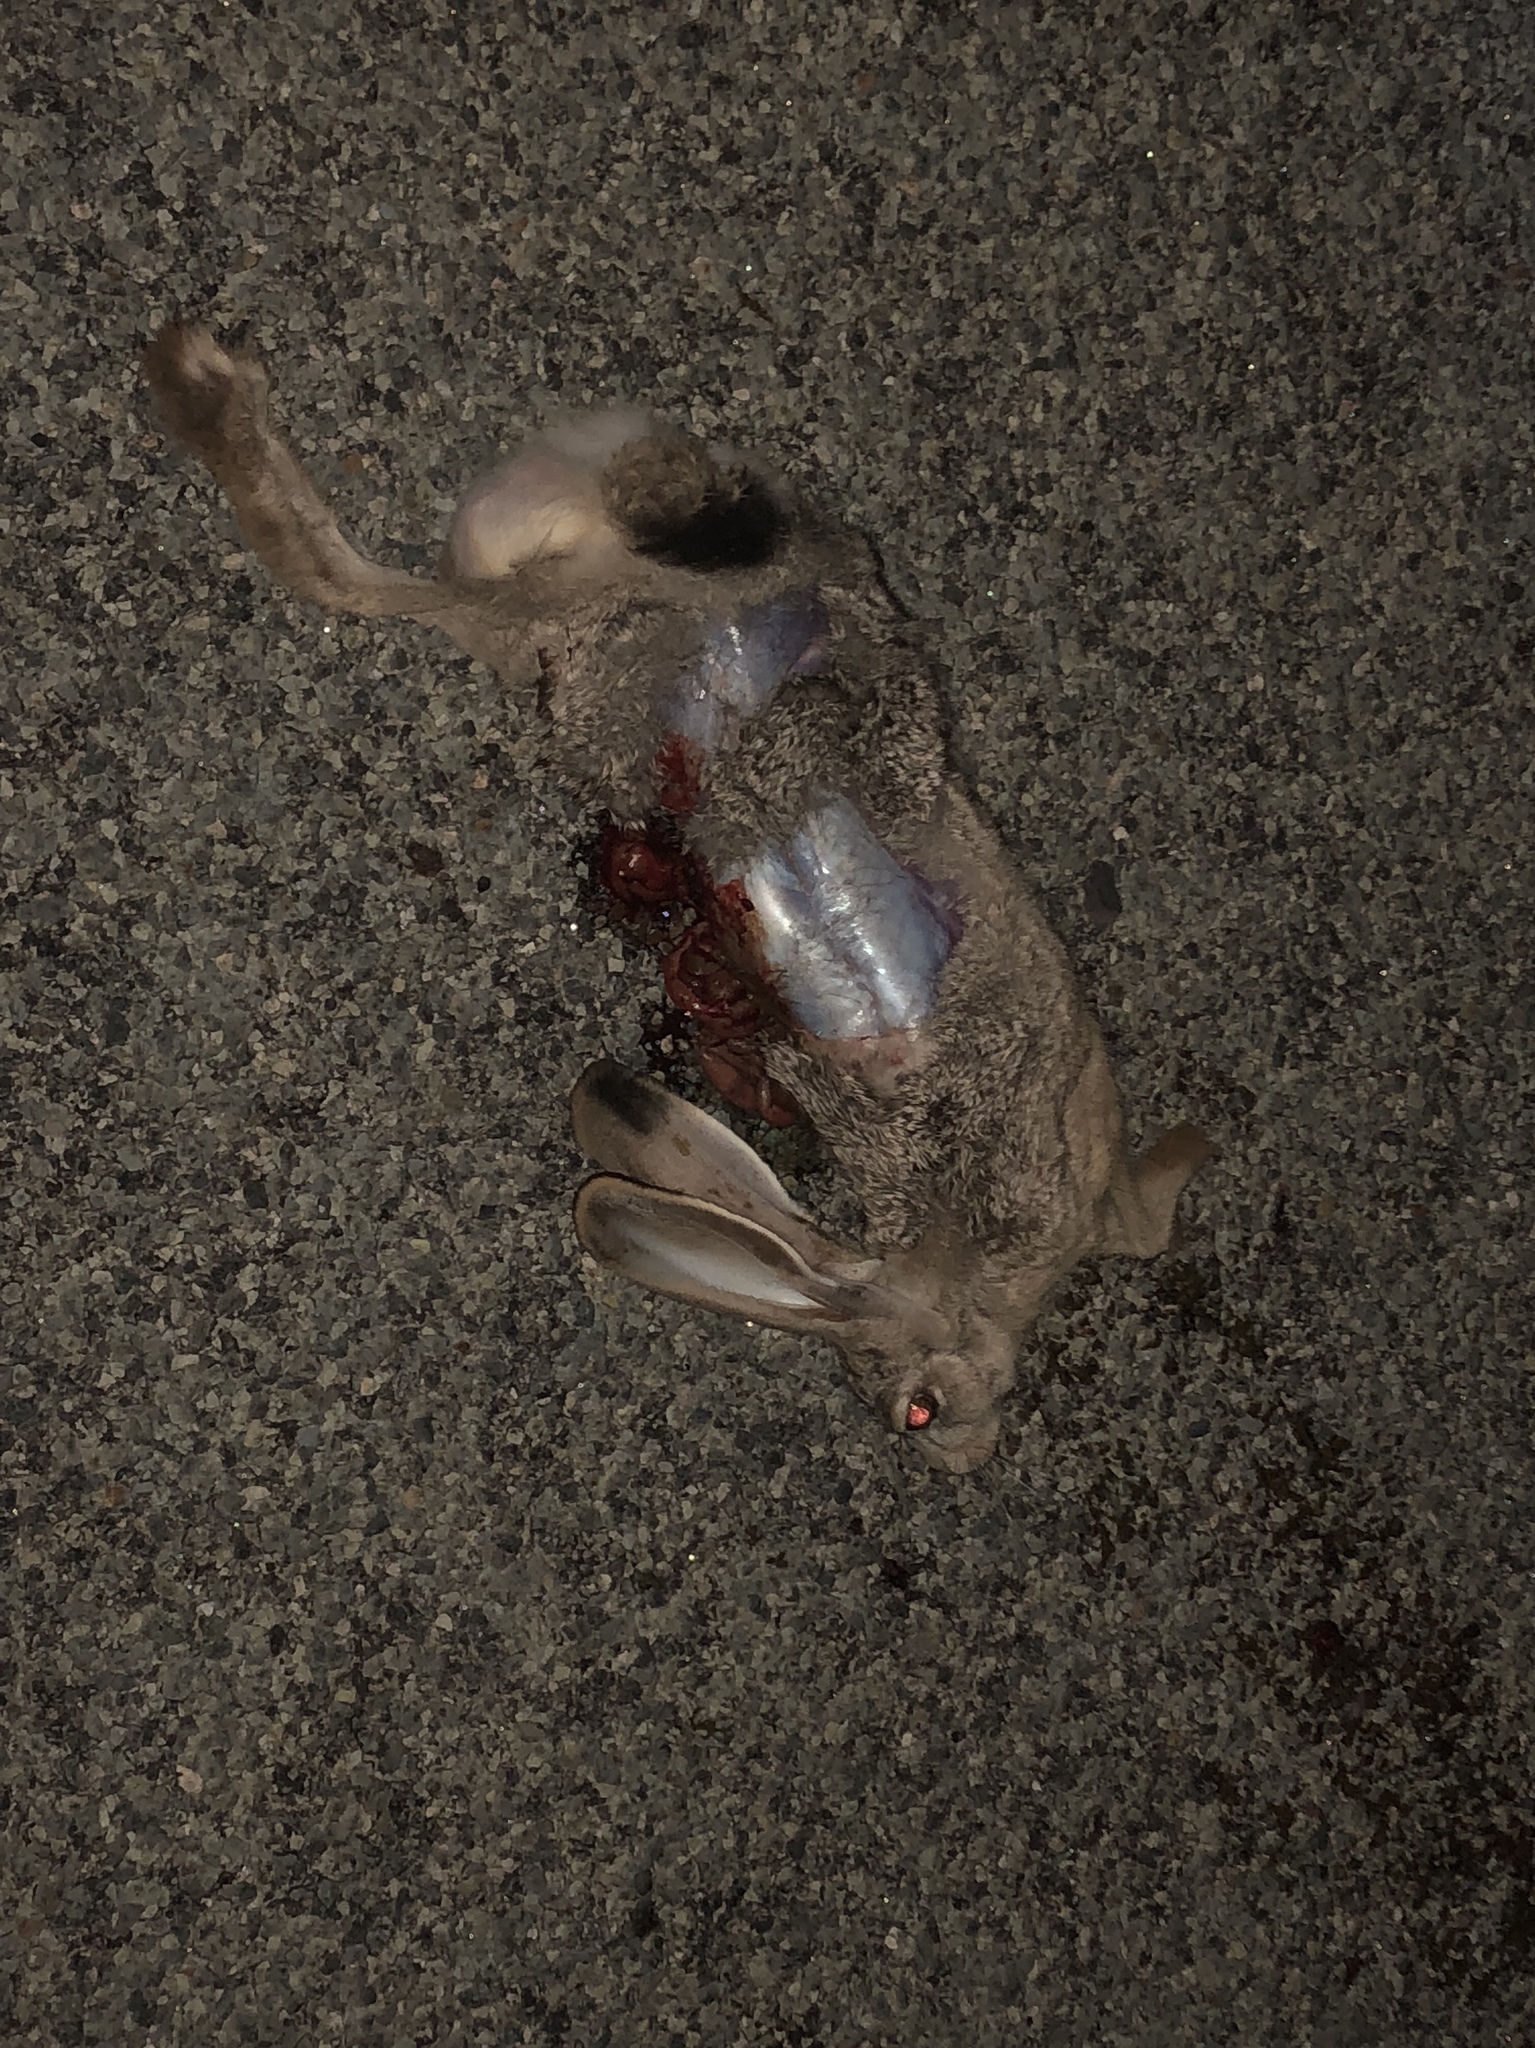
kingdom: Animalia
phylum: Chordata
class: Mammalia
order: Lagomorpha
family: Leporidae
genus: Lepus
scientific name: Lepus californicus
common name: Black-tailed jackrabbit
